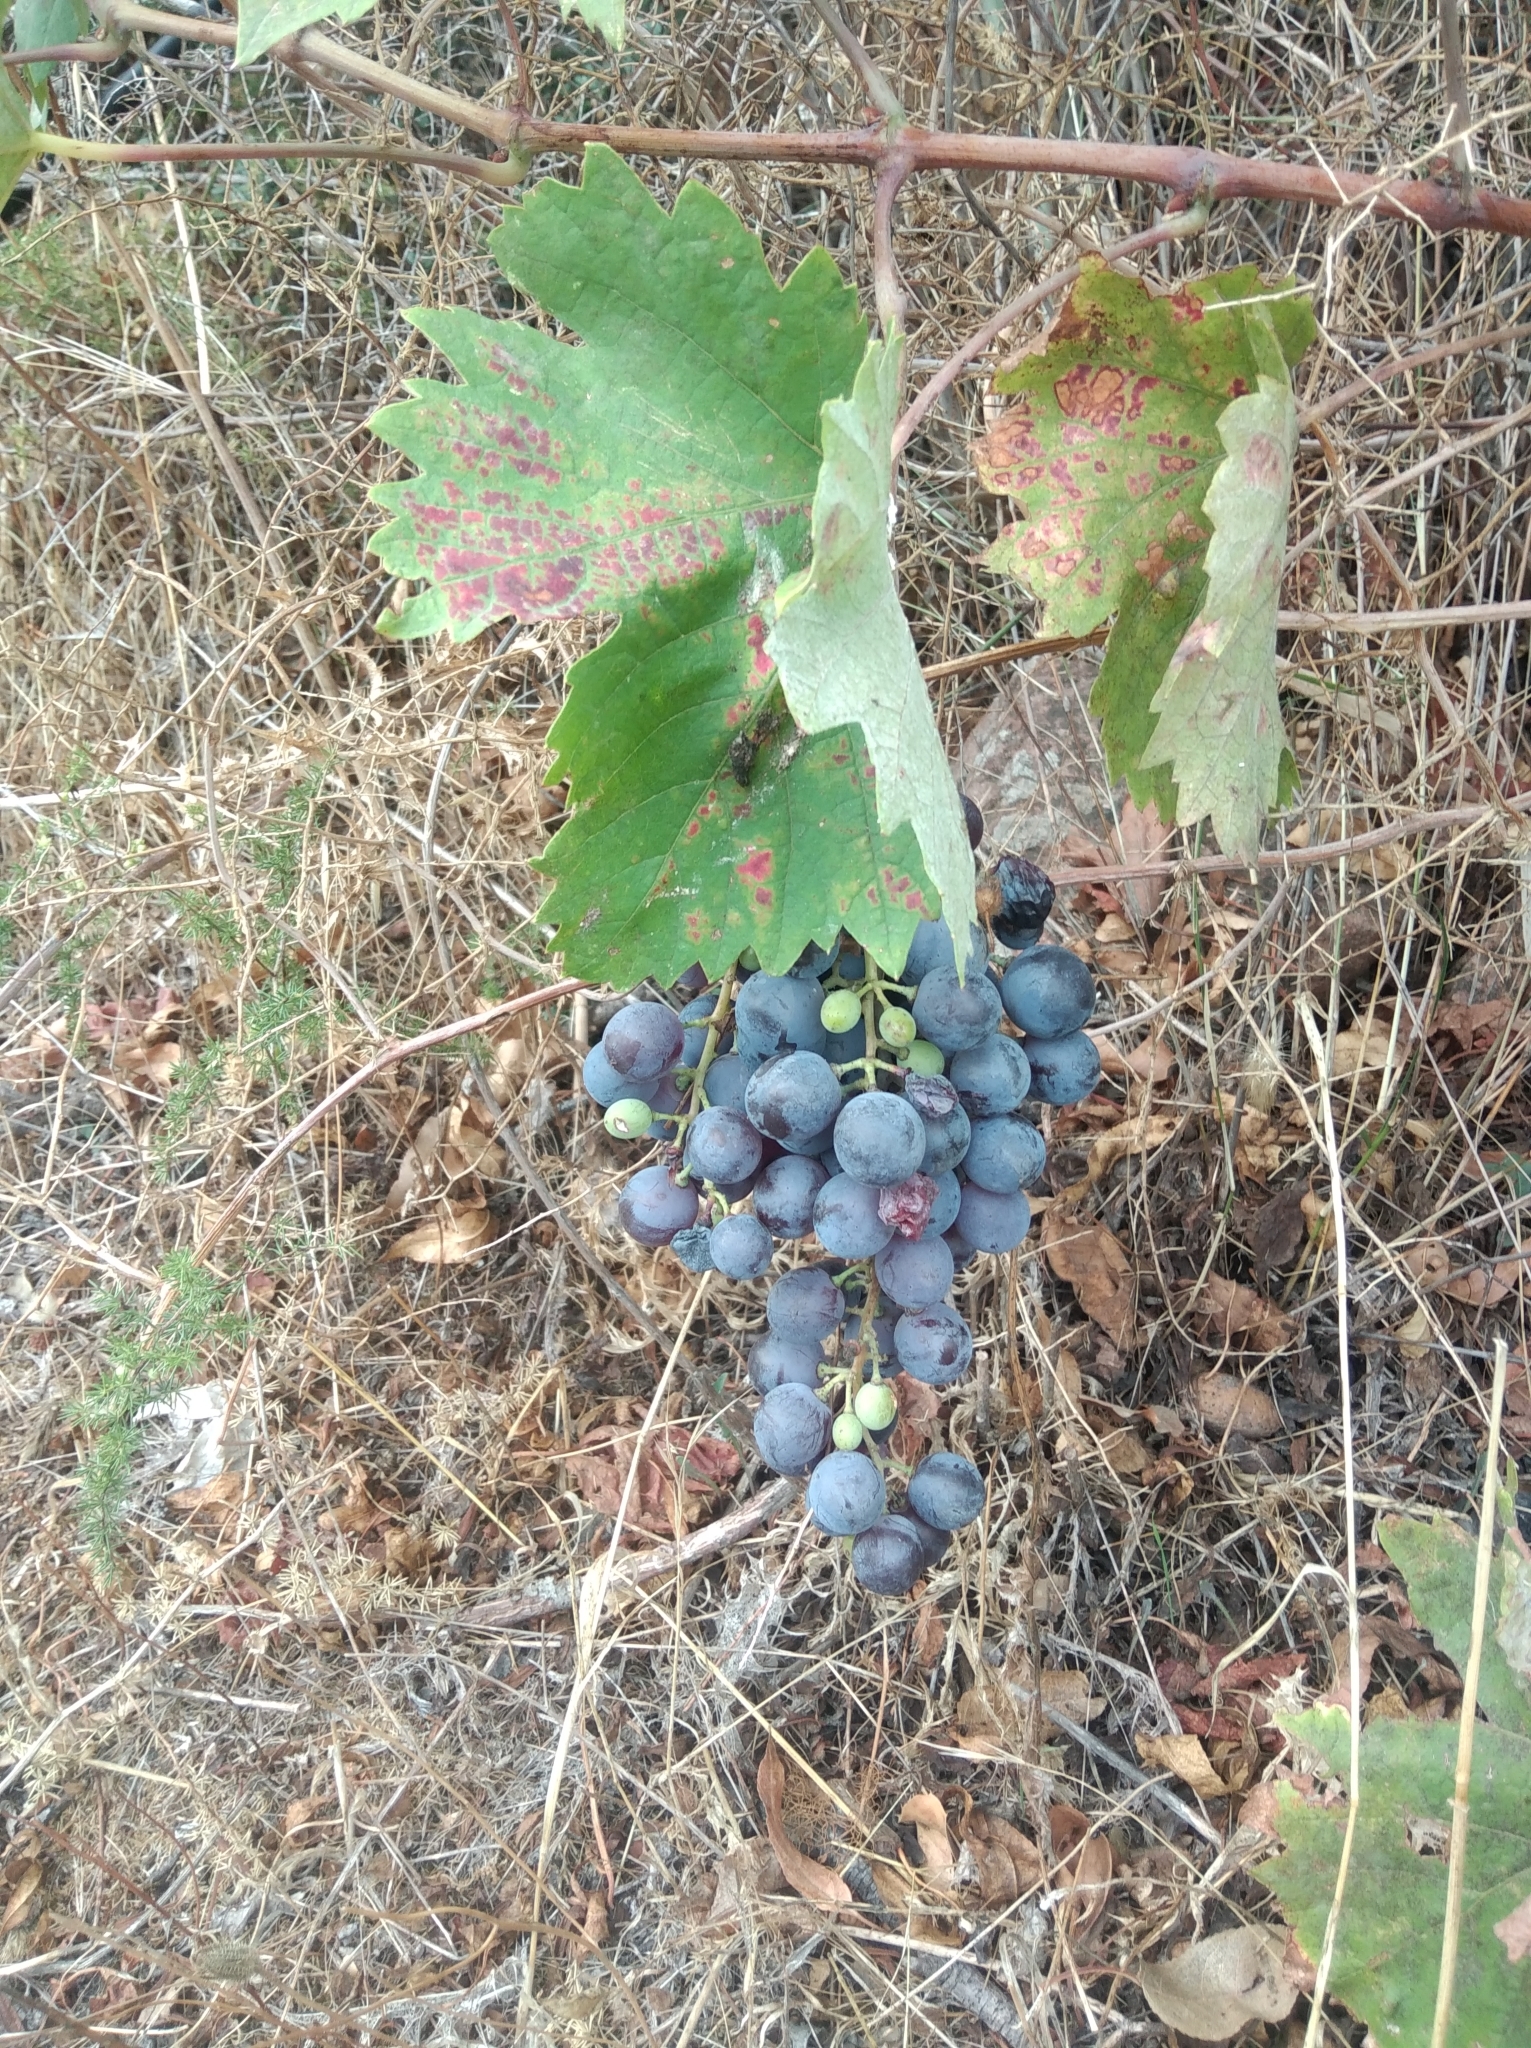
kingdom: Plantae
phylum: Tracheophyta
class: Magnoliopsida
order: Vitales
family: Vitaceae
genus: Vitis
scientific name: Vitis vinifera
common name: Grape-vine
